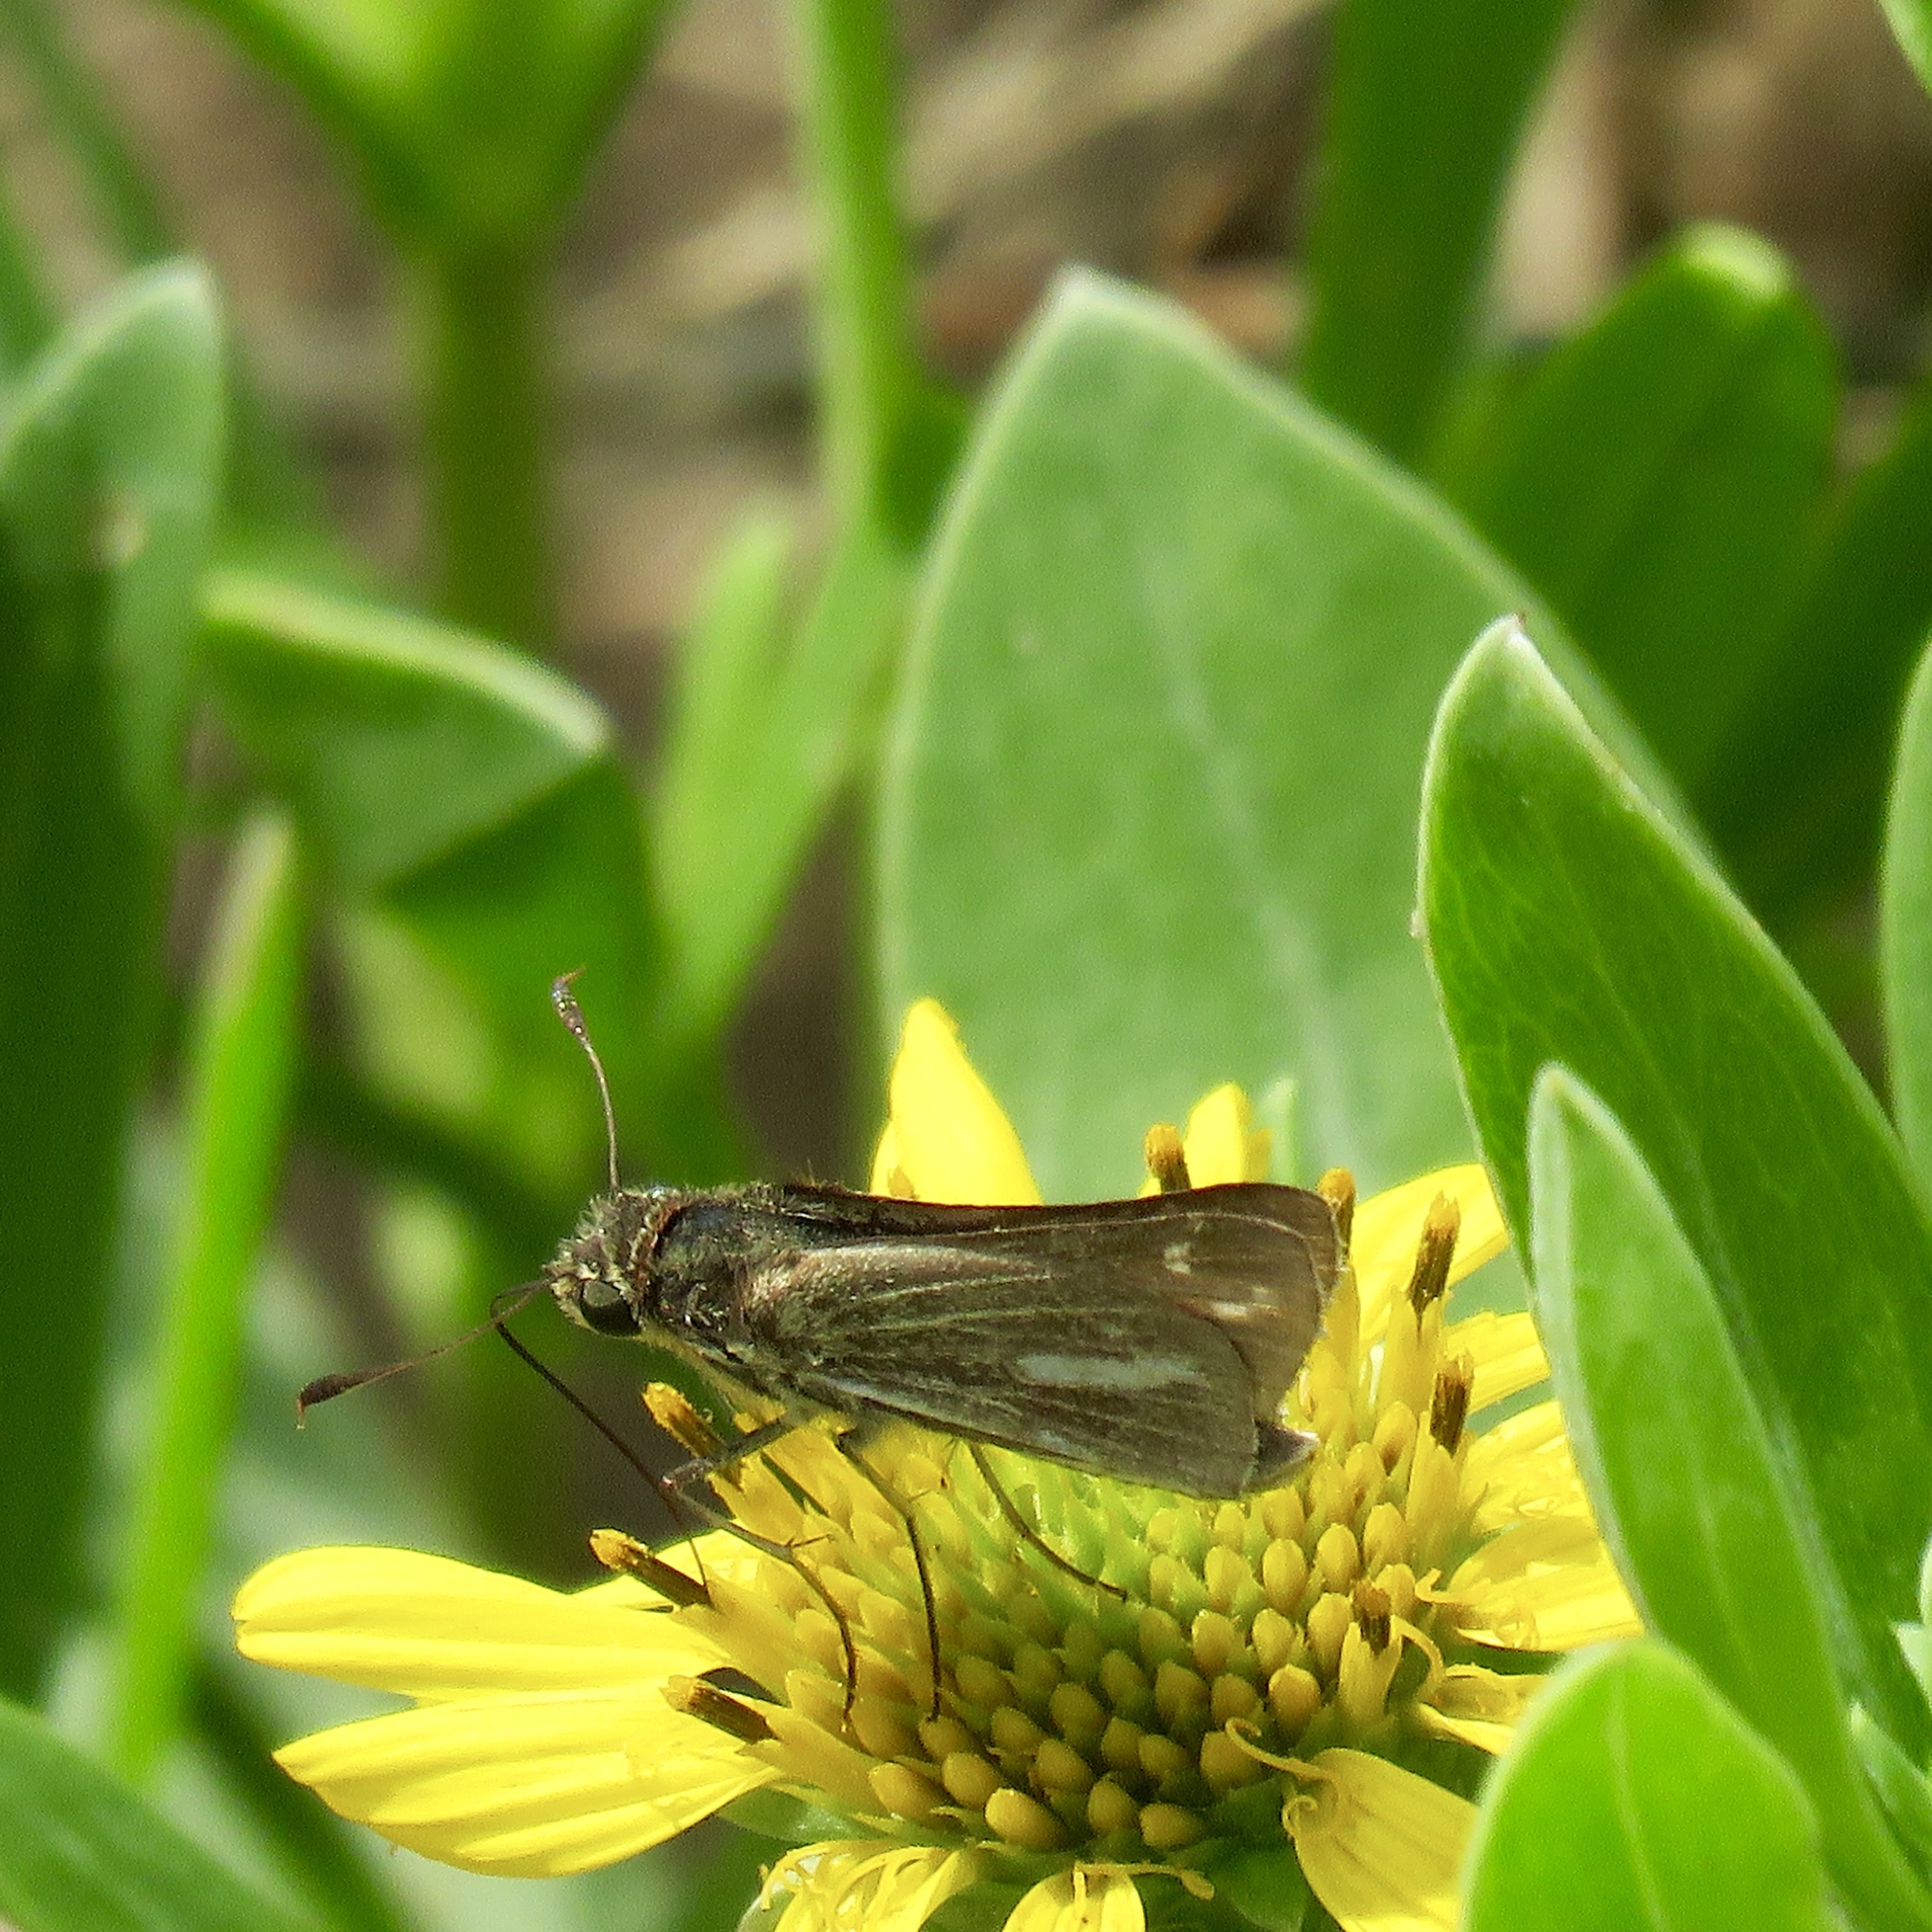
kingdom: Animalia
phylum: Arthropoda
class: Insecta
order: Lepidoptera
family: Hesperiidae
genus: Panoquina
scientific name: Panoquina panoquin
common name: Salt marsh skipper
